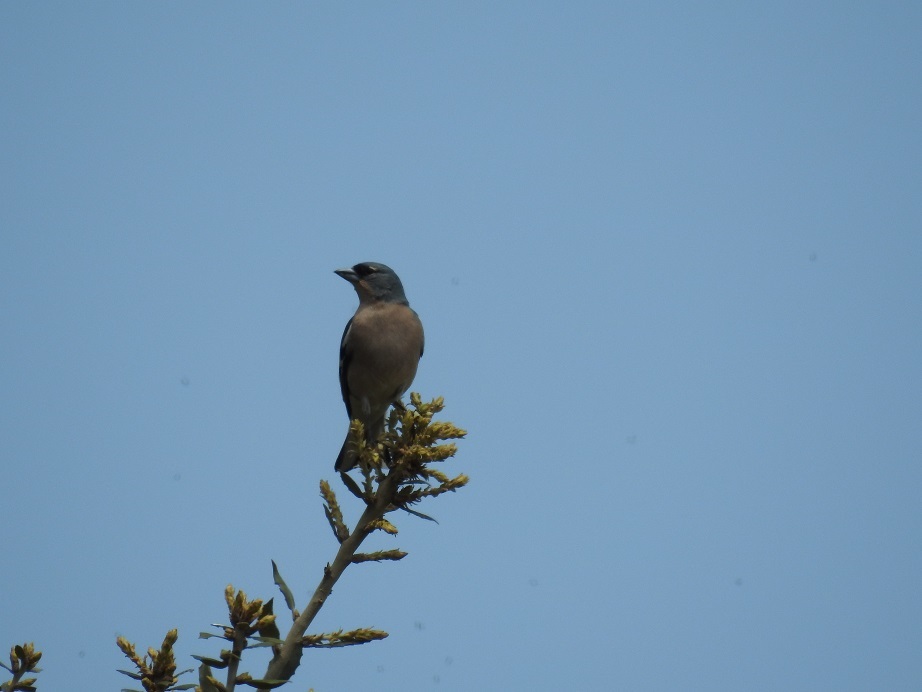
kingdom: Animalia
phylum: Chordata
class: Aves
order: Passeriformes
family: Fringillidae
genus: Fringilla
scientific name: Fringilla spodiogenys
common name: African chaffinch
